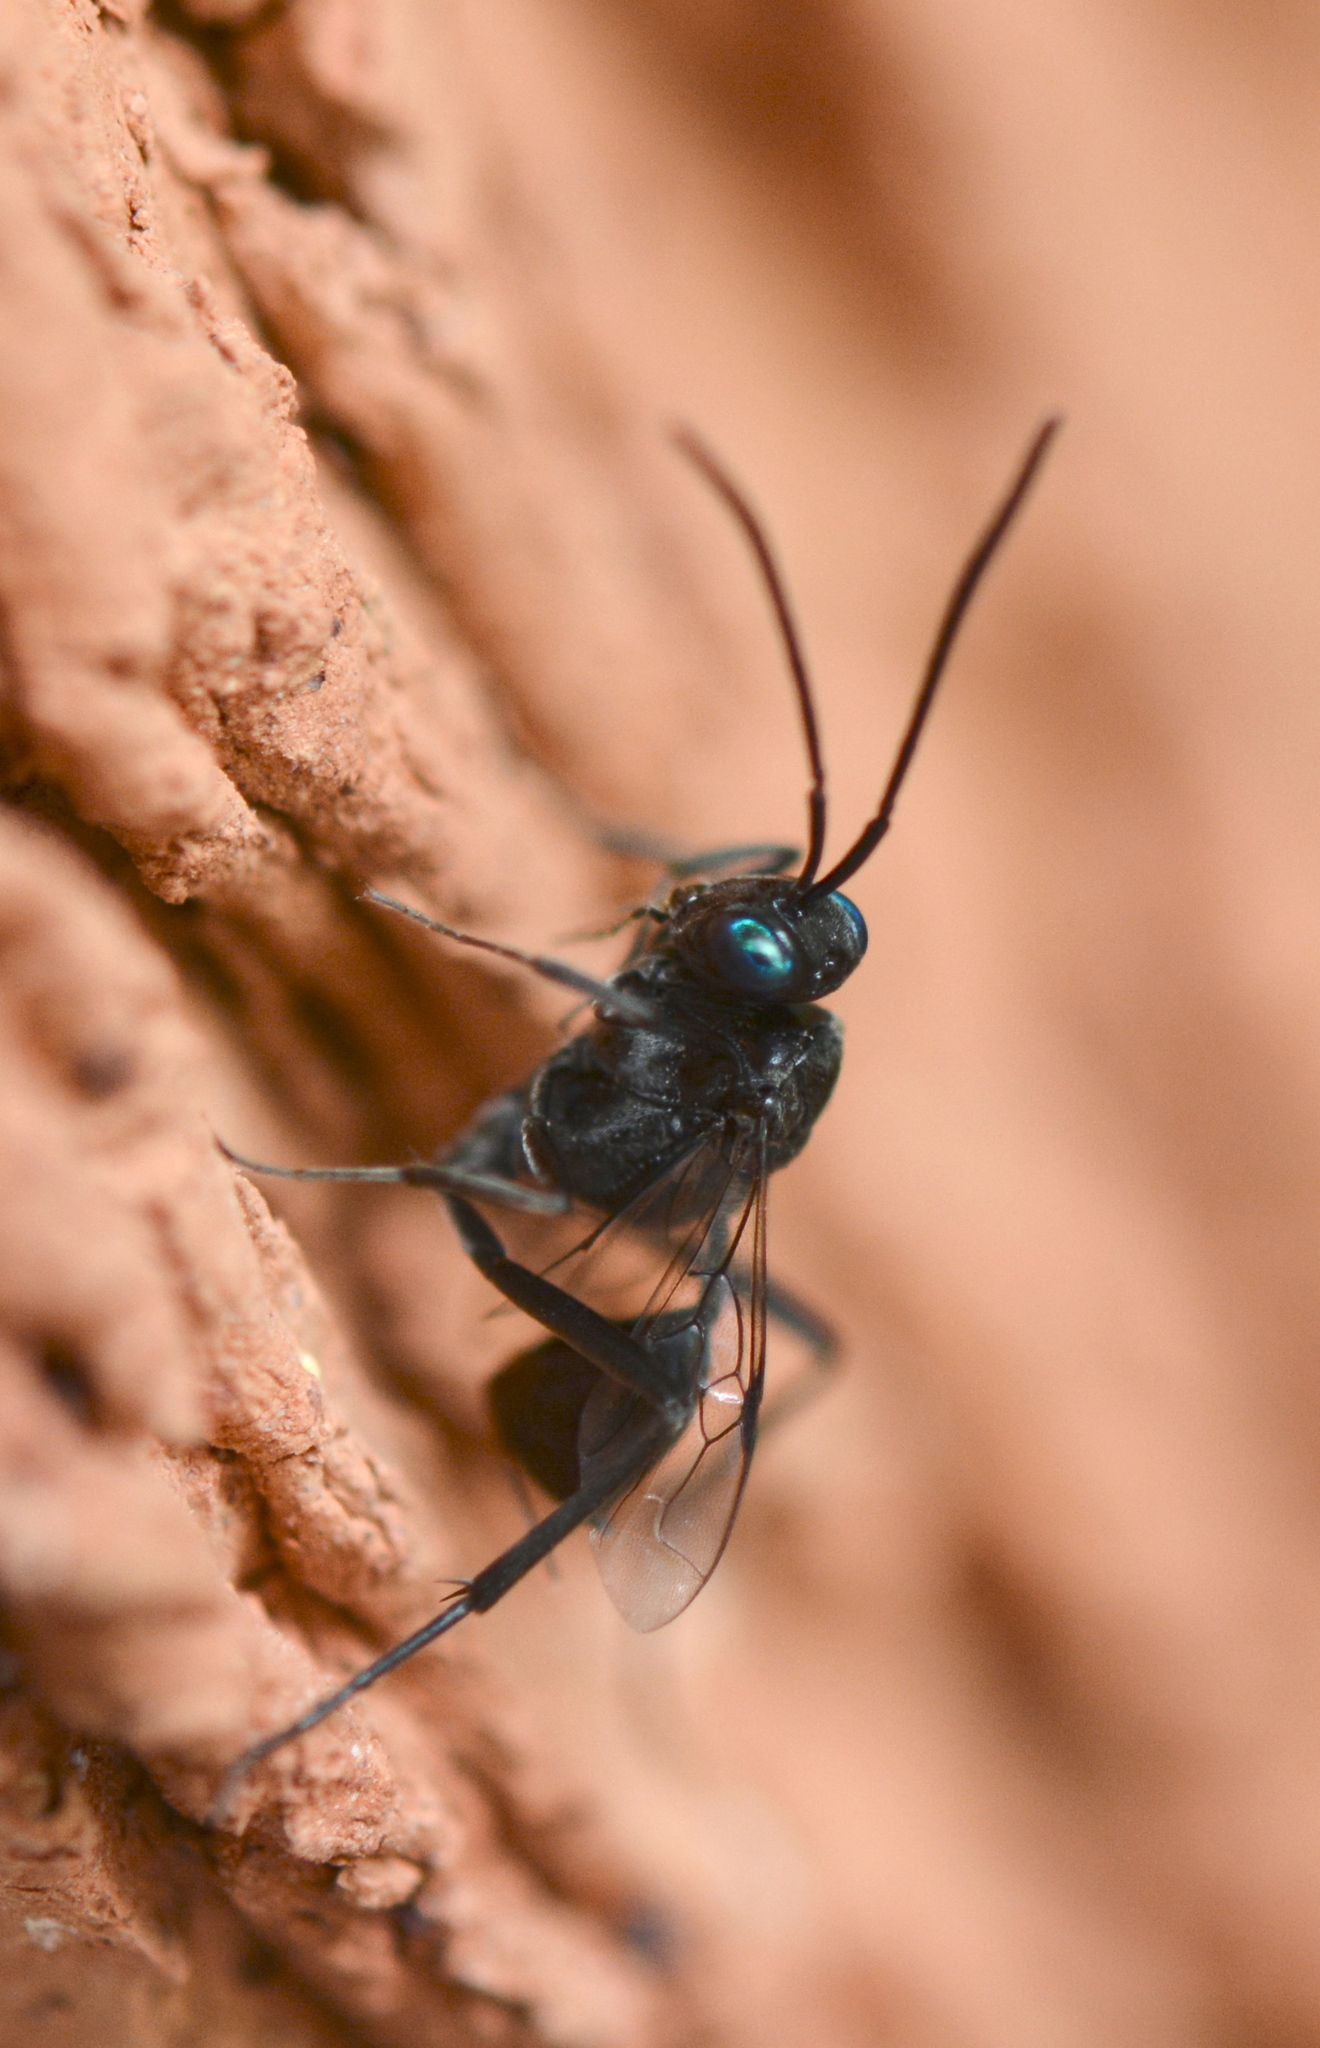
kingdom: Animalia
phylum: Arthropoda
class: Insecta
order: Hymenoptera
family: Evaniidae
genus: Evania
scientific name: Evania appendigaster
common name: Ensign wasp
